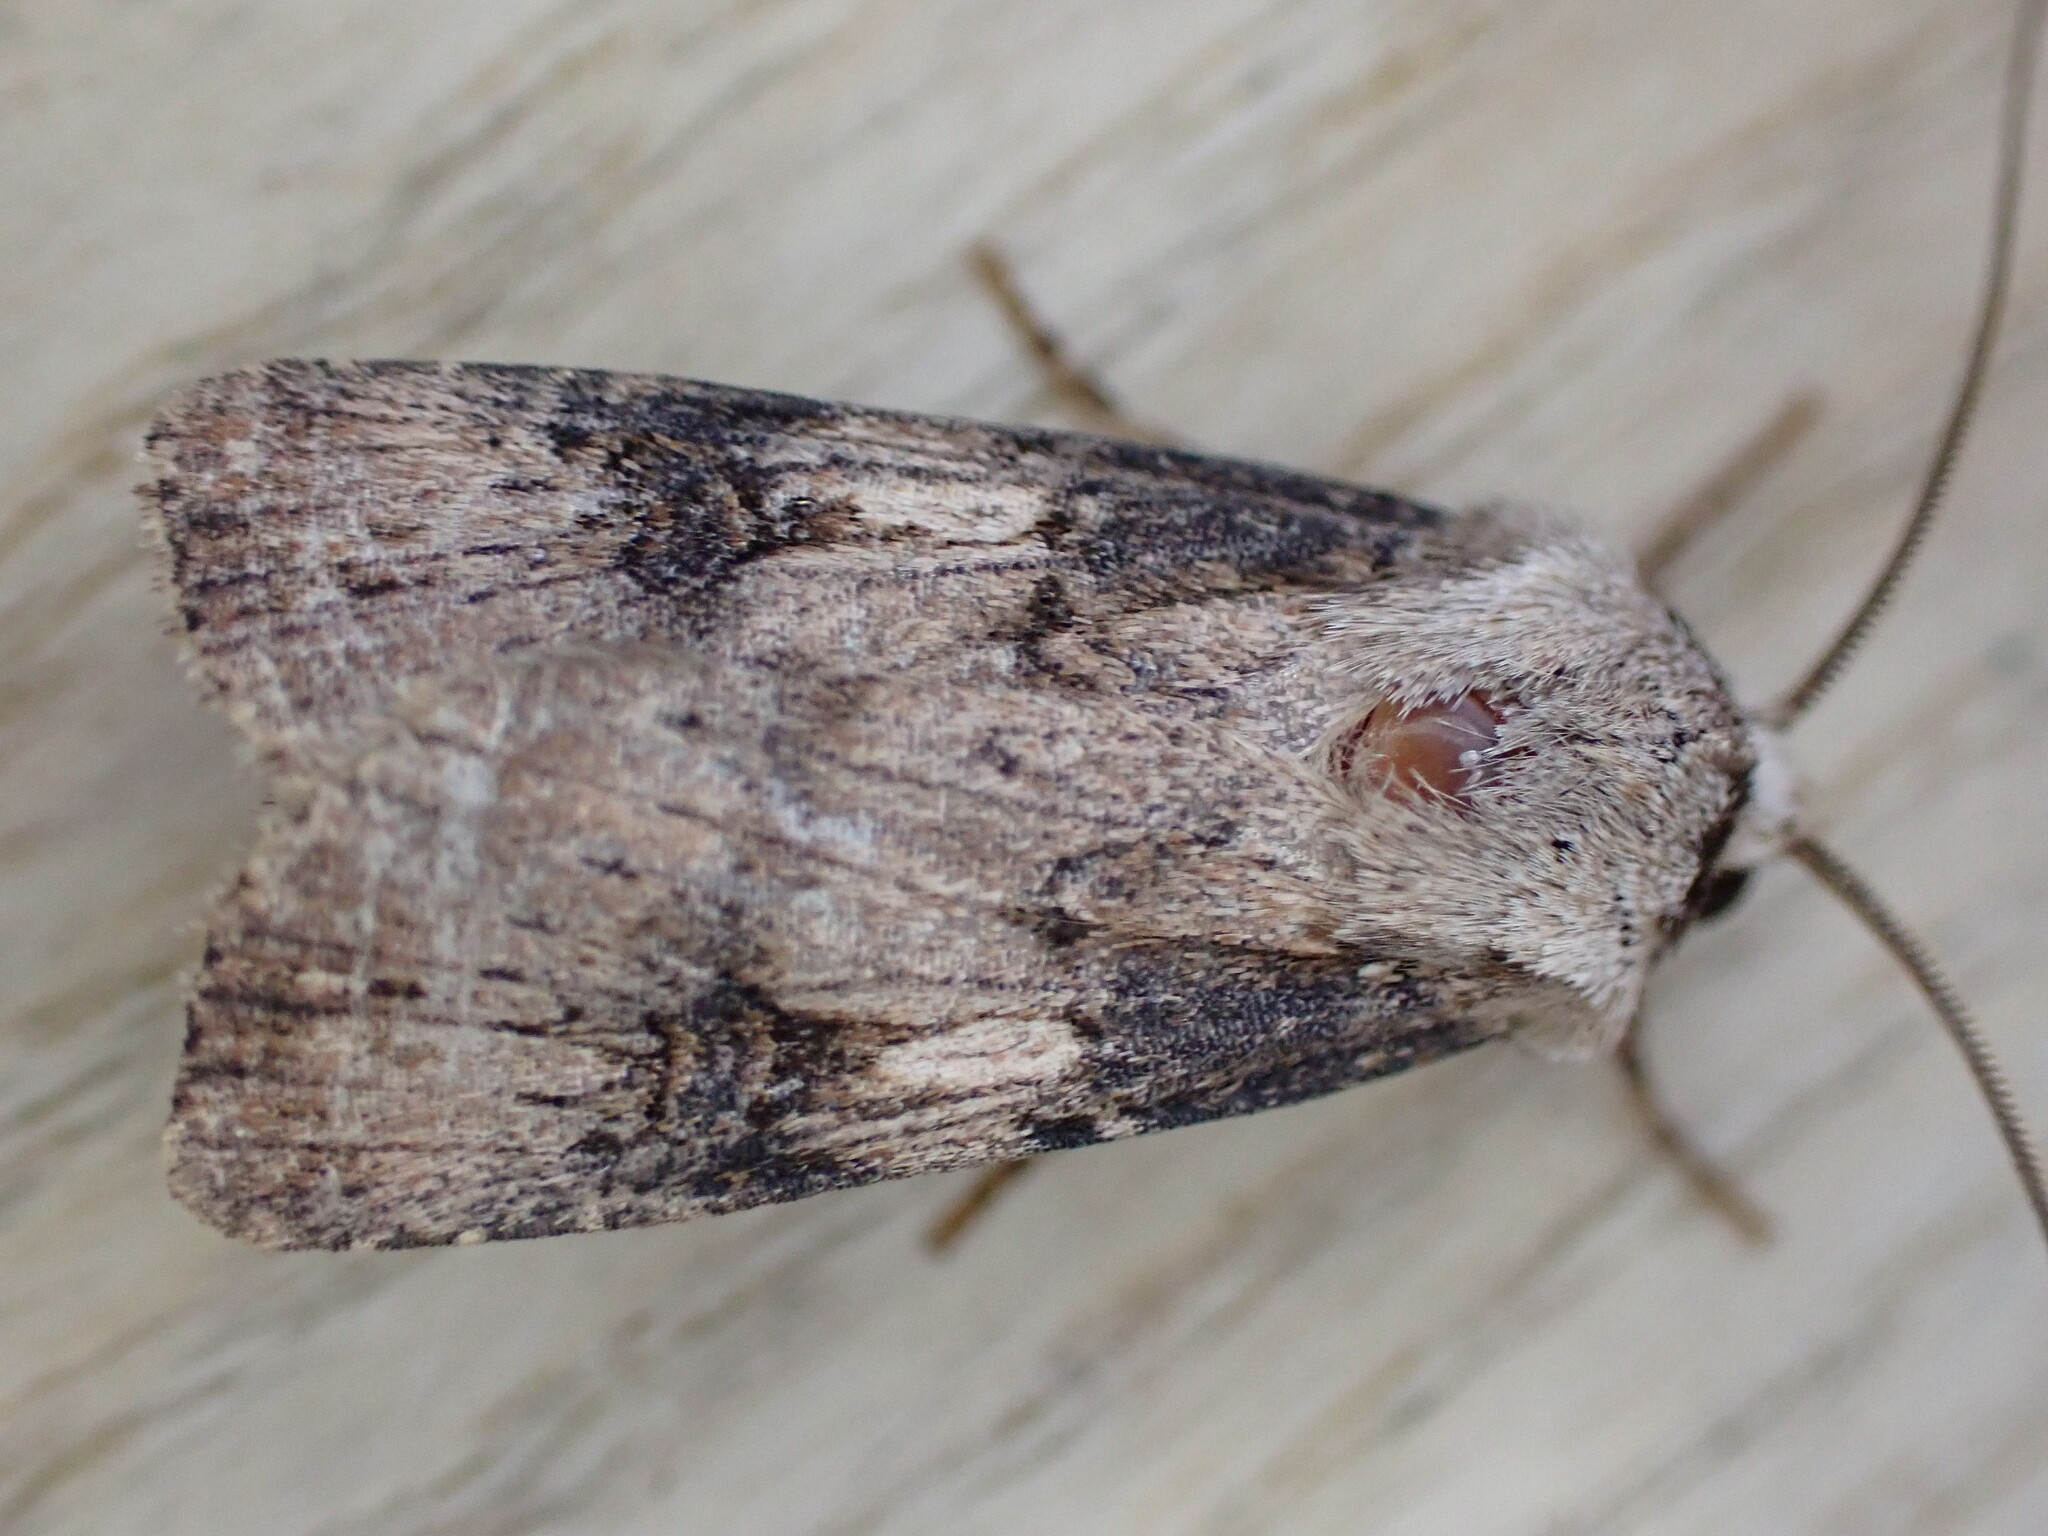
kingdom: Animalia
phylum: Arthropoda
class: Insecta
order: Lepidoptera
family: Noctuidae
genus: Agrotis
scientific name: Agrotis puta
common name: Shuttle-shaped dart
